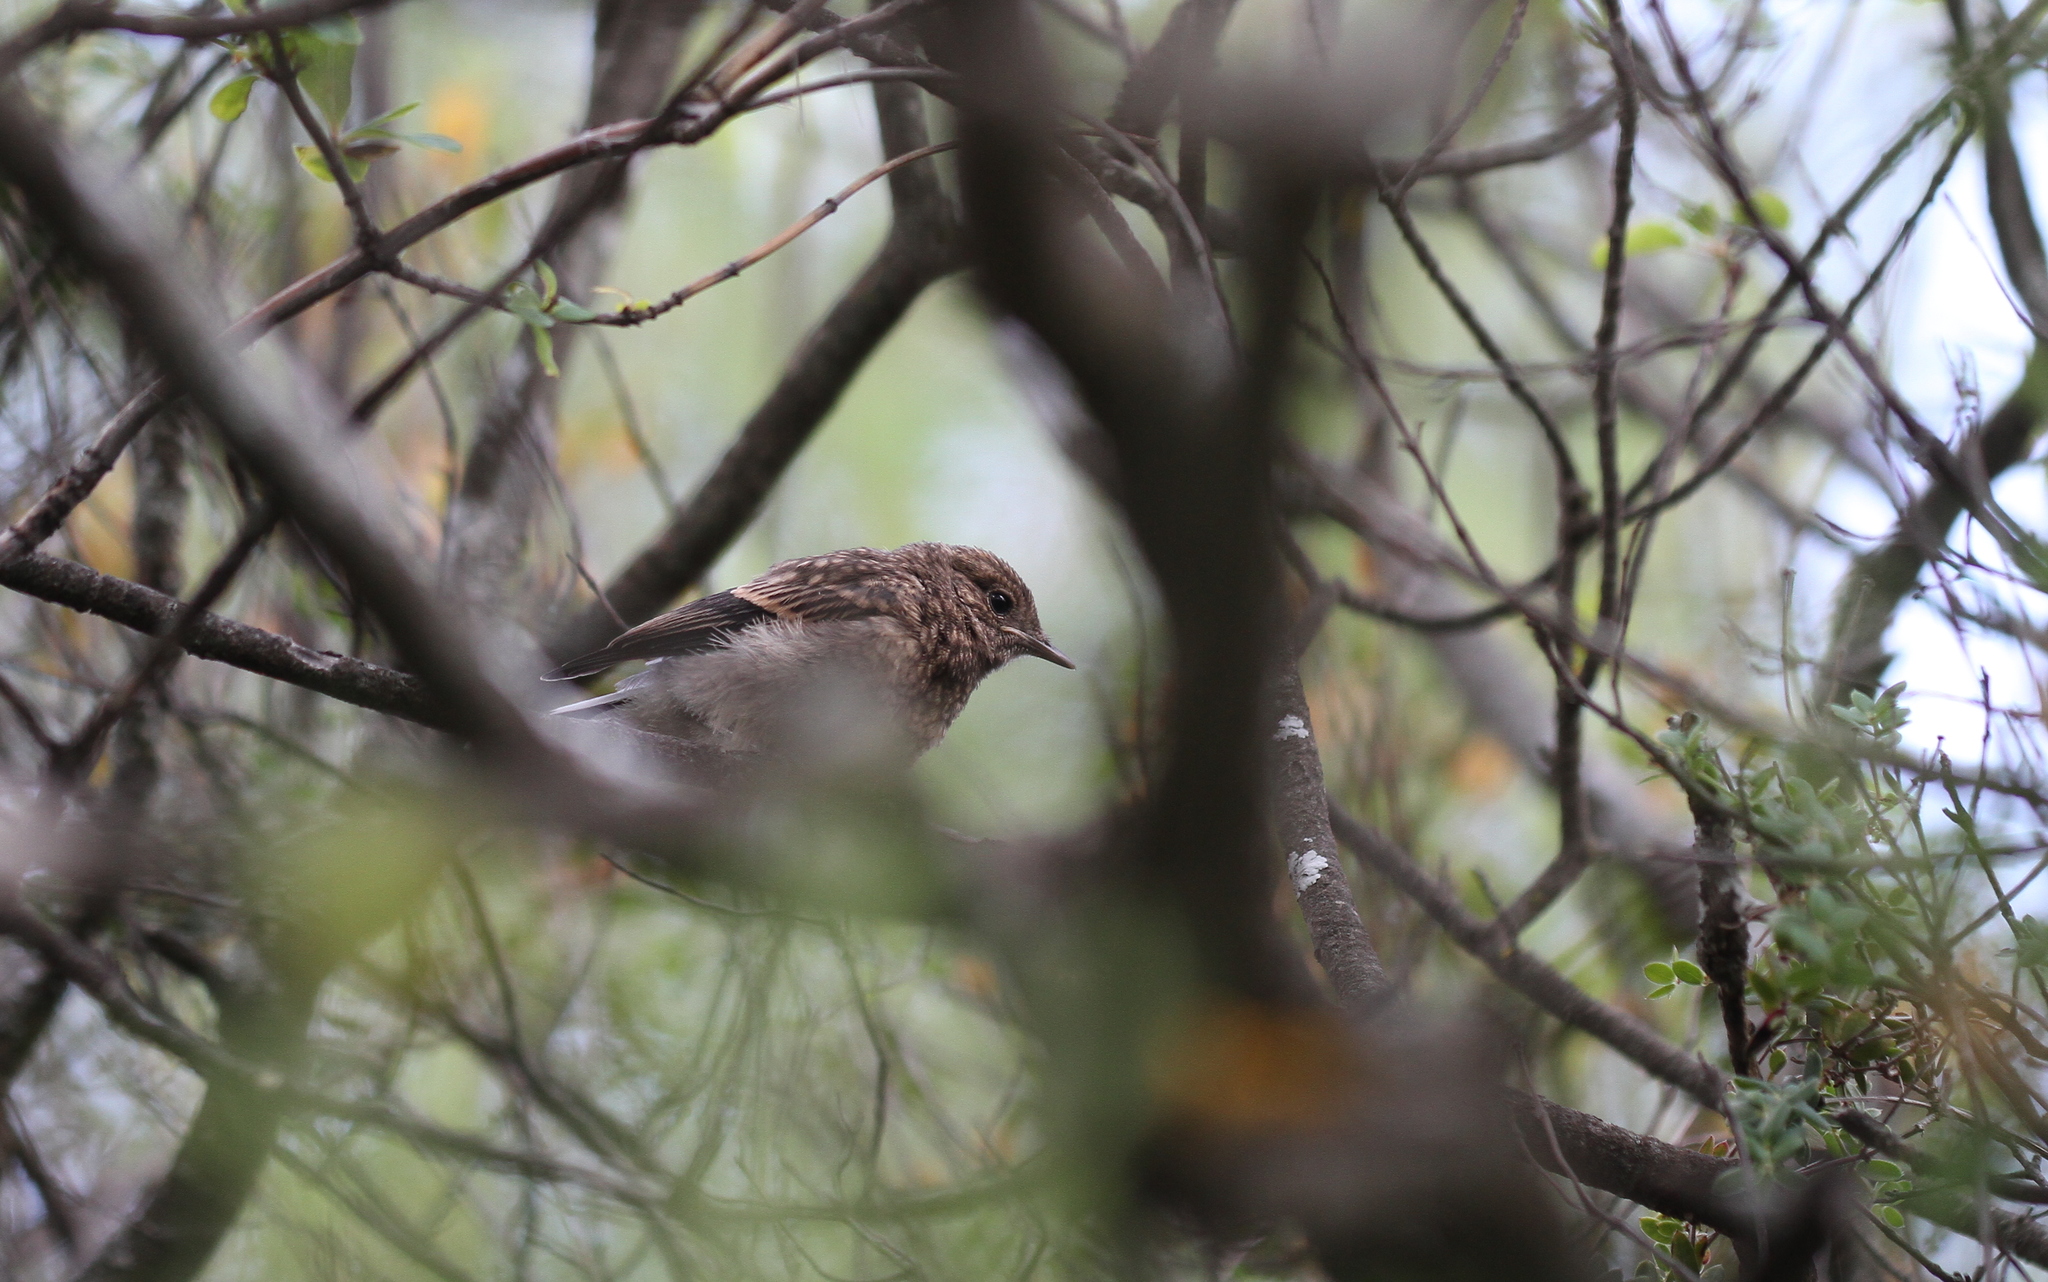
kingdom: Animalia
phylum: Chordata
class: Aves
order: Passeriformes
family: Muscicapidae
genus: Oenanthe
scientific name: Oenanthe cypriaca
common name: Cyprus wheatear
